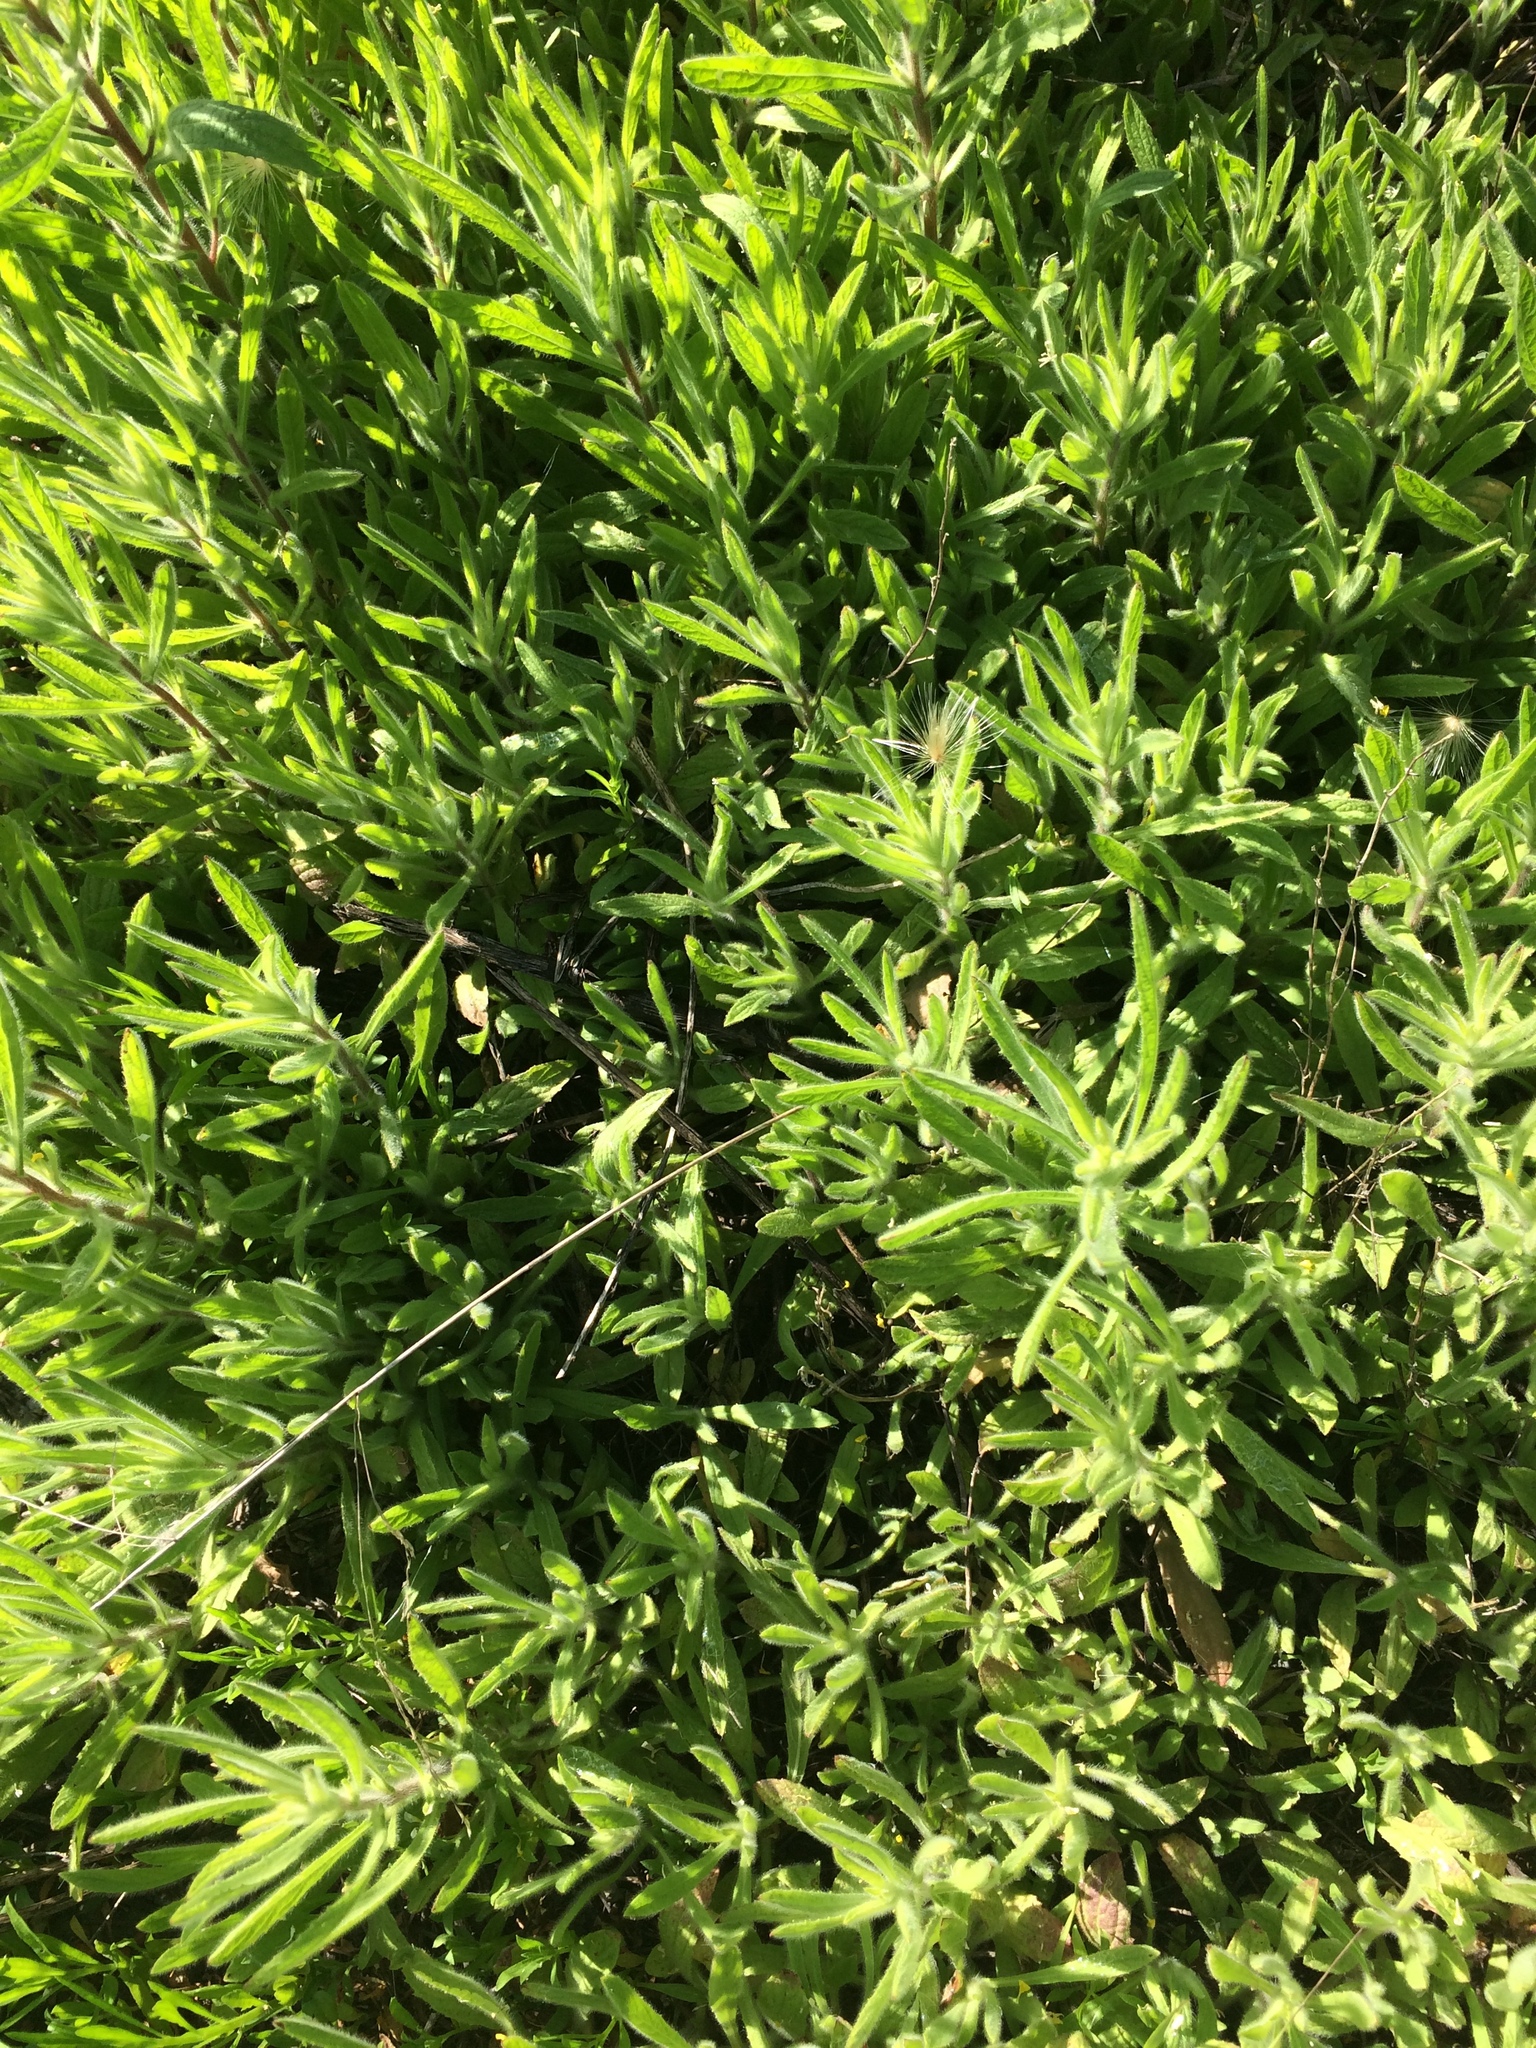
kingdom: Plantae
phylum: Tracheophyta
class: Magnoliopsida
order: Asterales
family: Asteraceae
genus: Dittrichia
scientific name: Dittrichia graveolens
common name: Stinking fleabane
